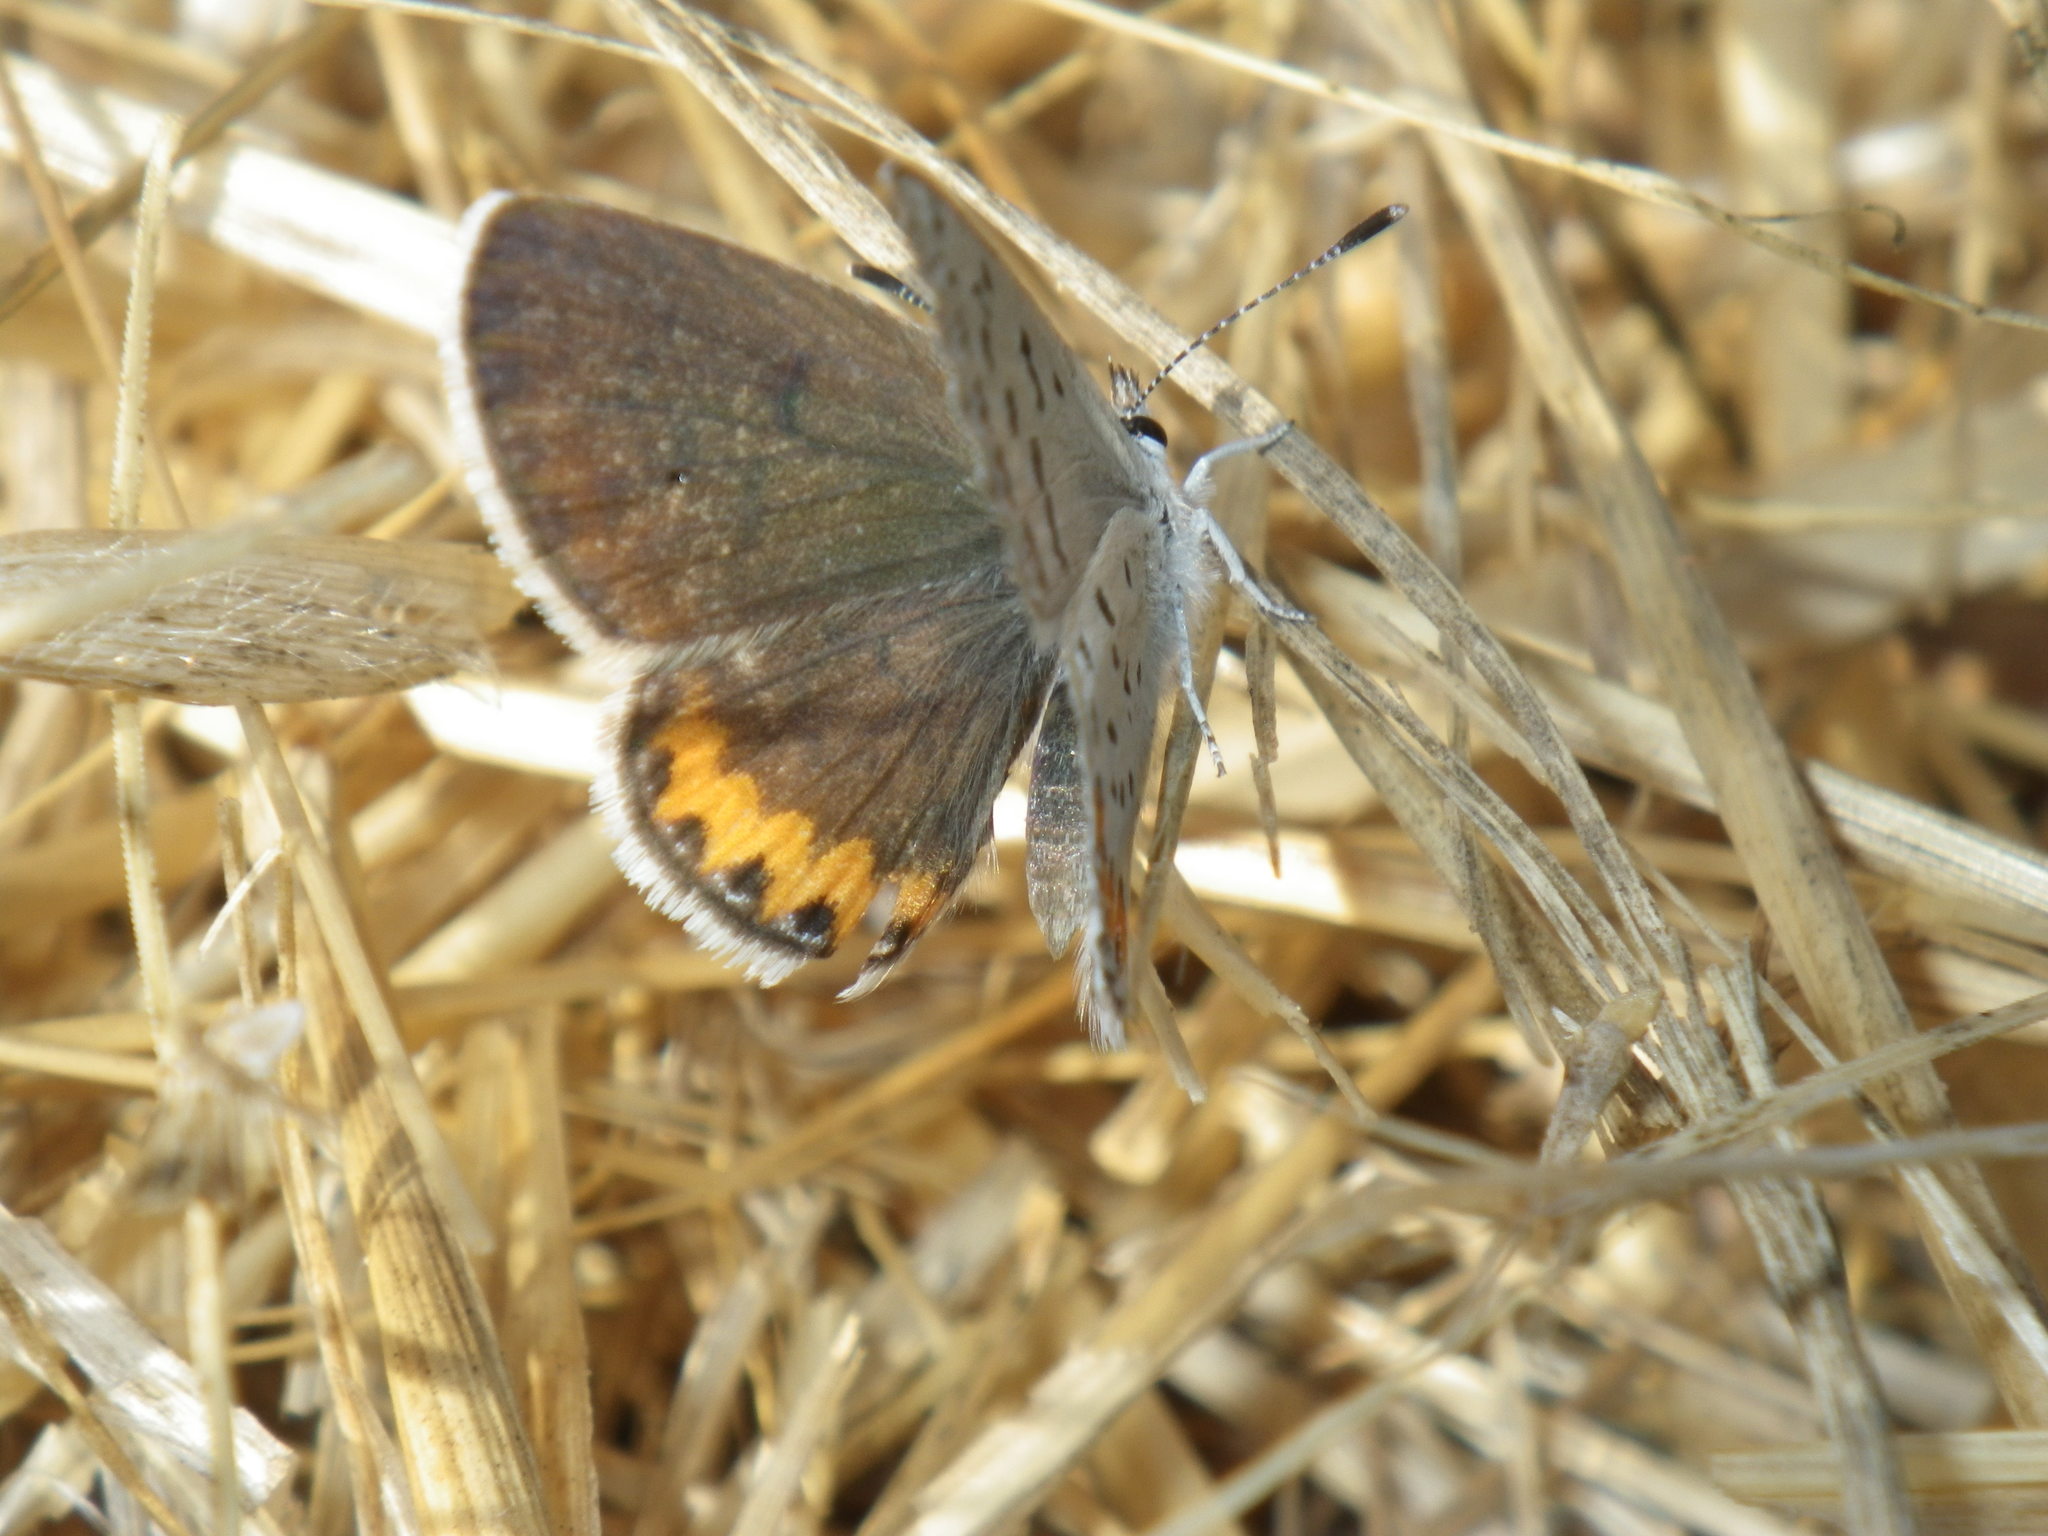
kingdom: Animalia
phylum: Arthropoda
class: Insecta
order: Lepidoptera
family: Lycaenidae
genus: Icaricia
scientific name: Icaricia acmon
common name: Acmon blue
